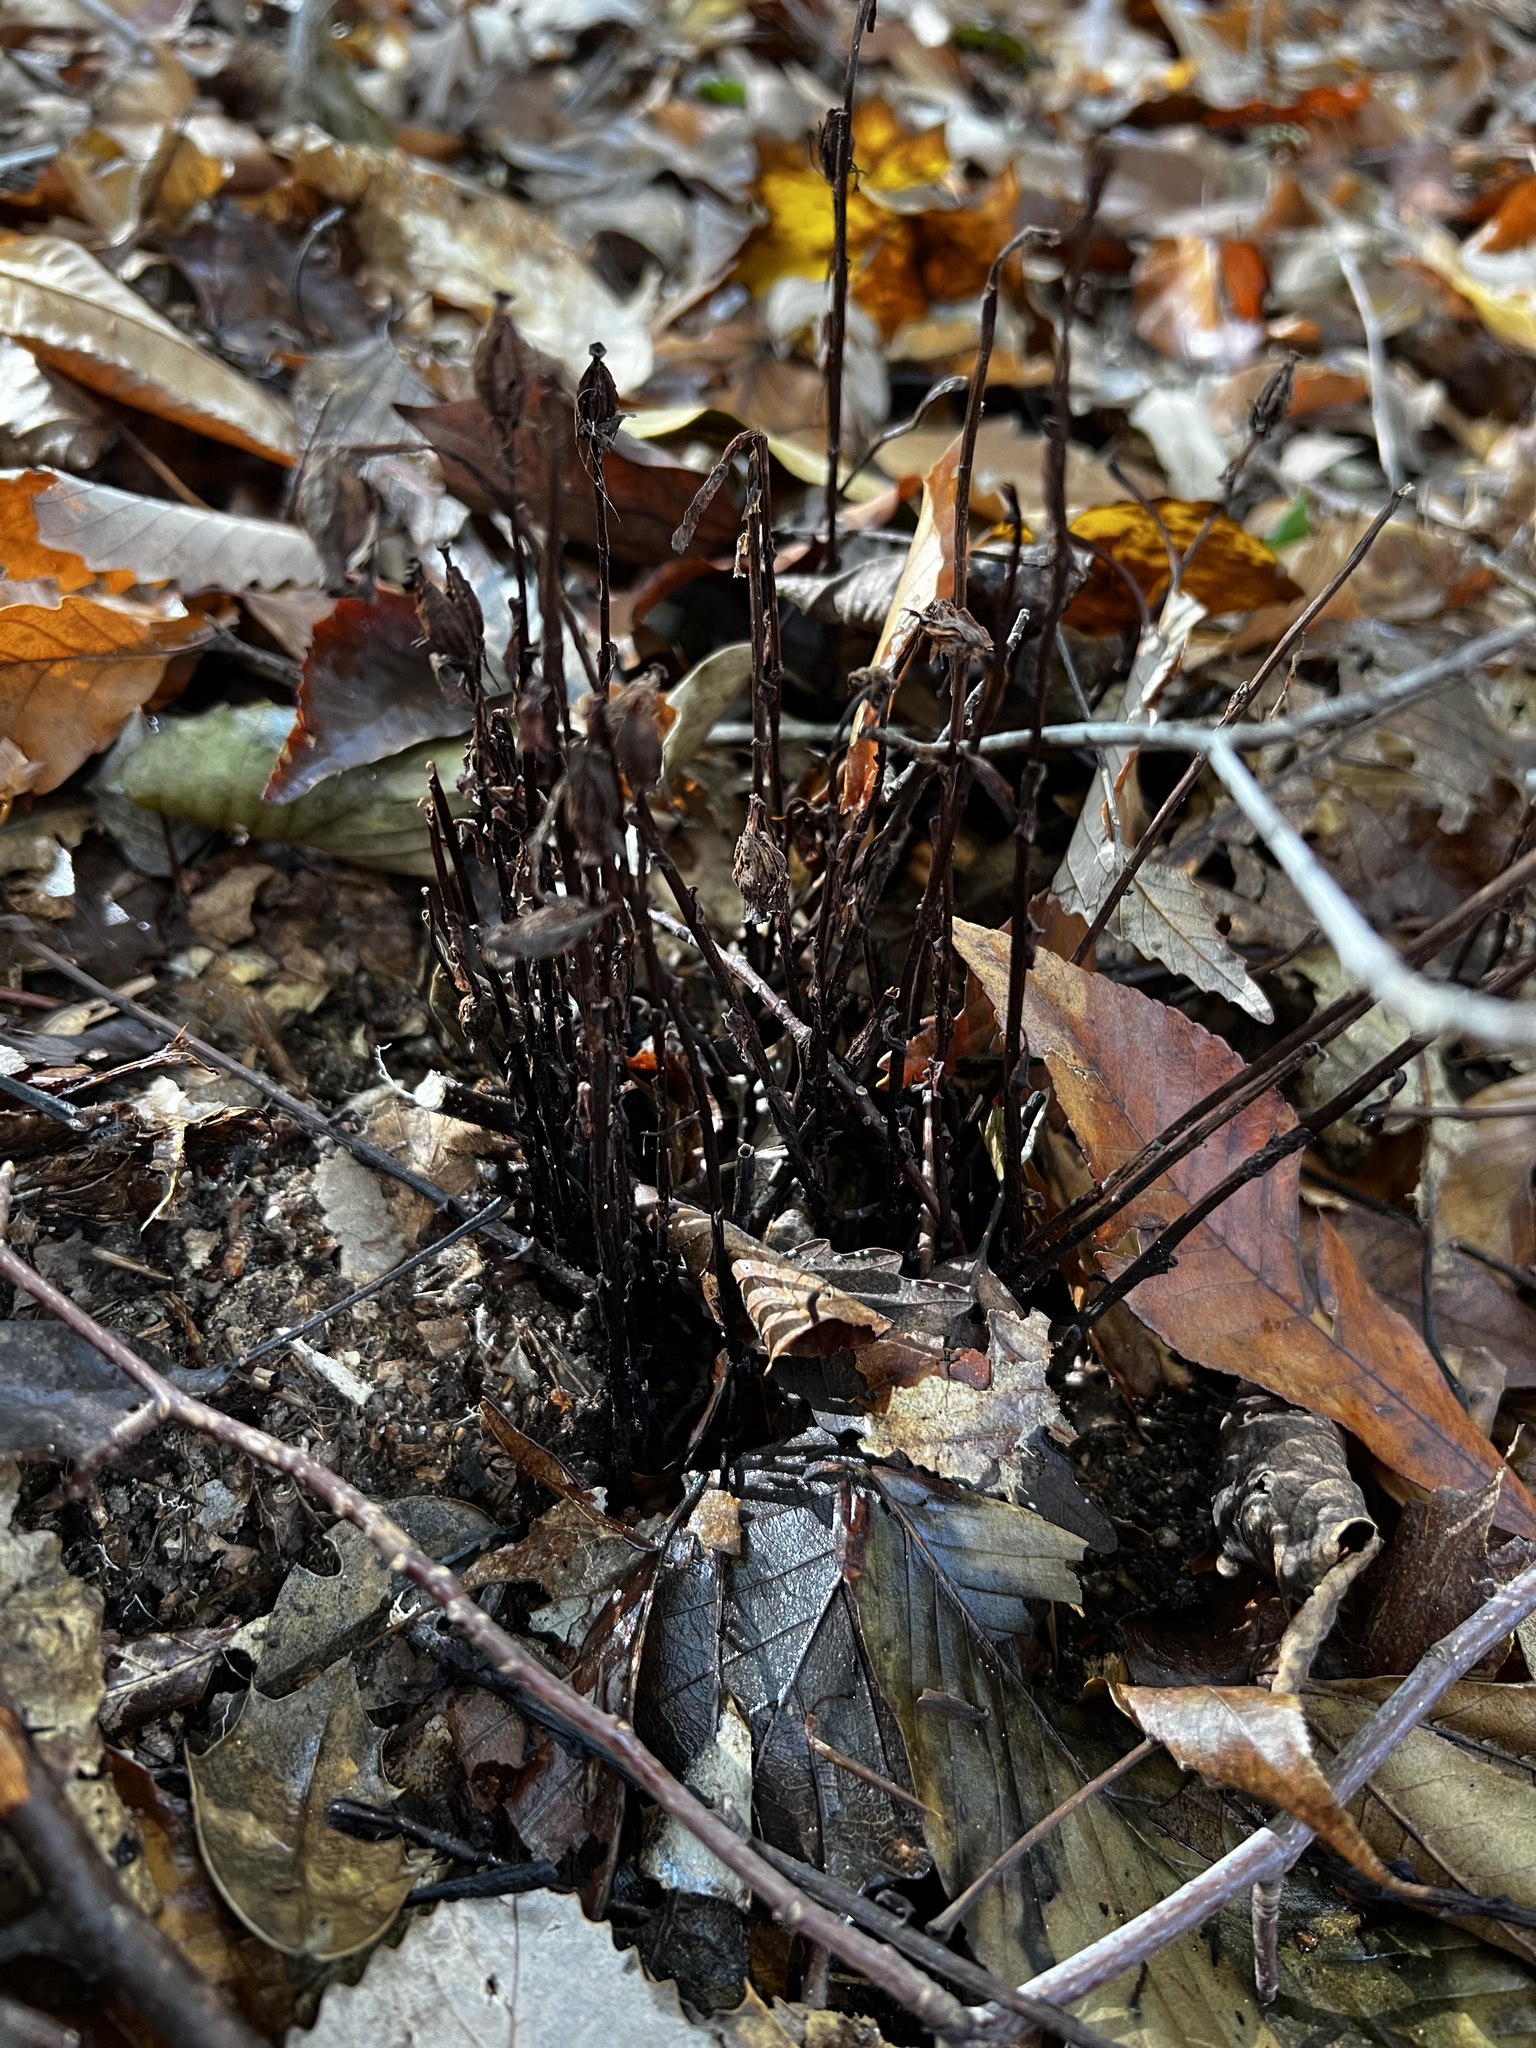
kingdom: Plantae
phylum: Tracheophyta
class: Magnoliopsida
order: Ericales
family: Ericaceae
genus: Monotropa
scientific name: Monotropa uniflora
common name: Convulsion root
